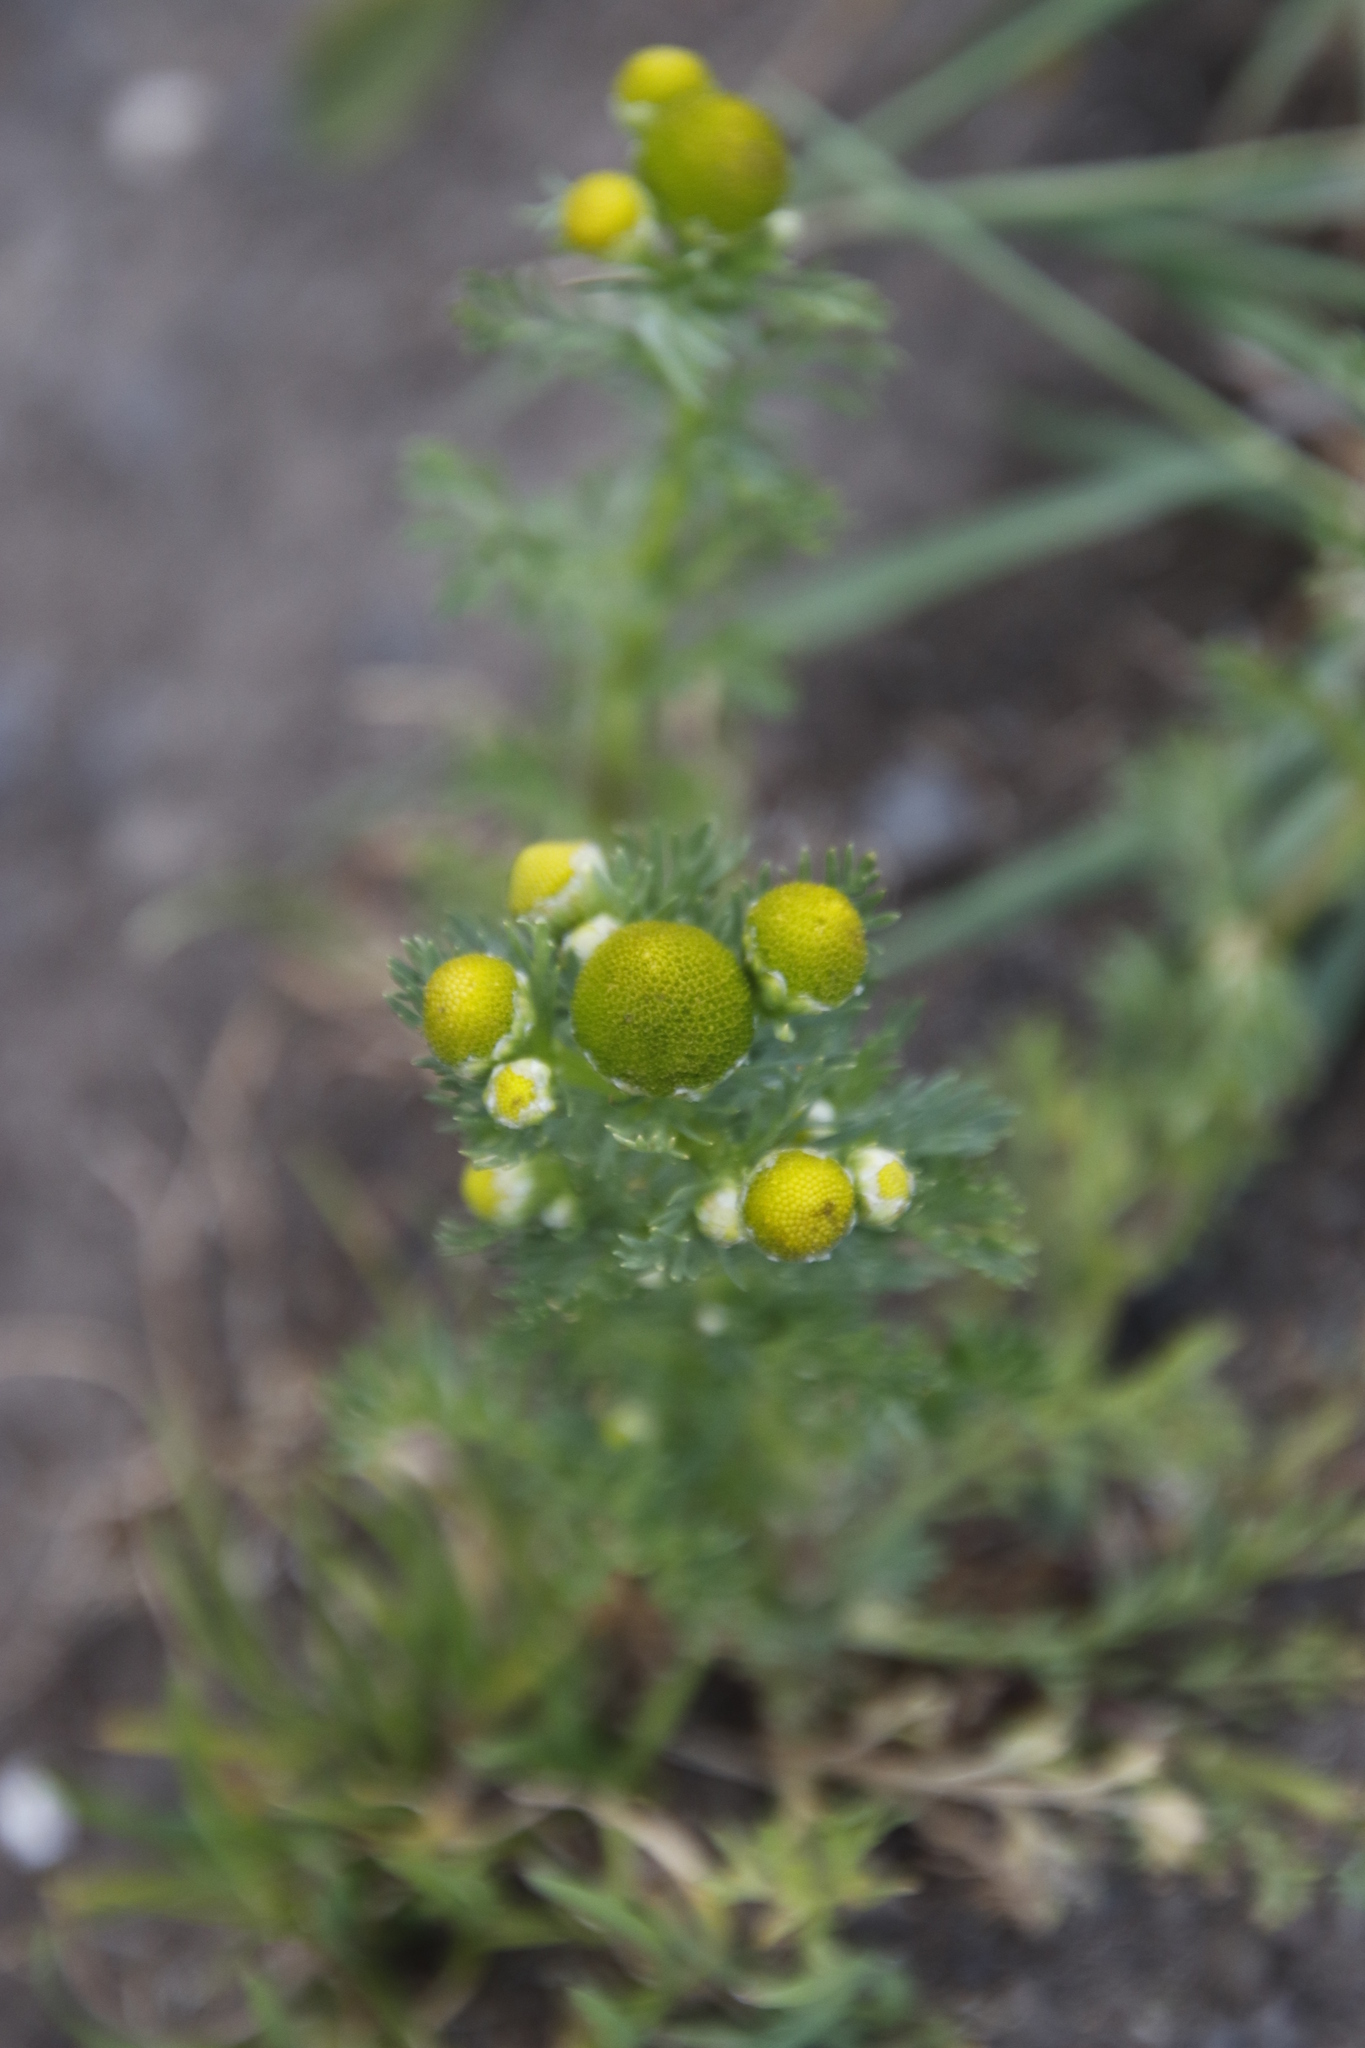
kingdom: Plantae
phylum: Tracheophyta
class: Magnoliopsida
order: Asterales
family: Asteraceae
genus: Matricaria
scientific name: Matricaria discoidea
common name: Disc mayweed
